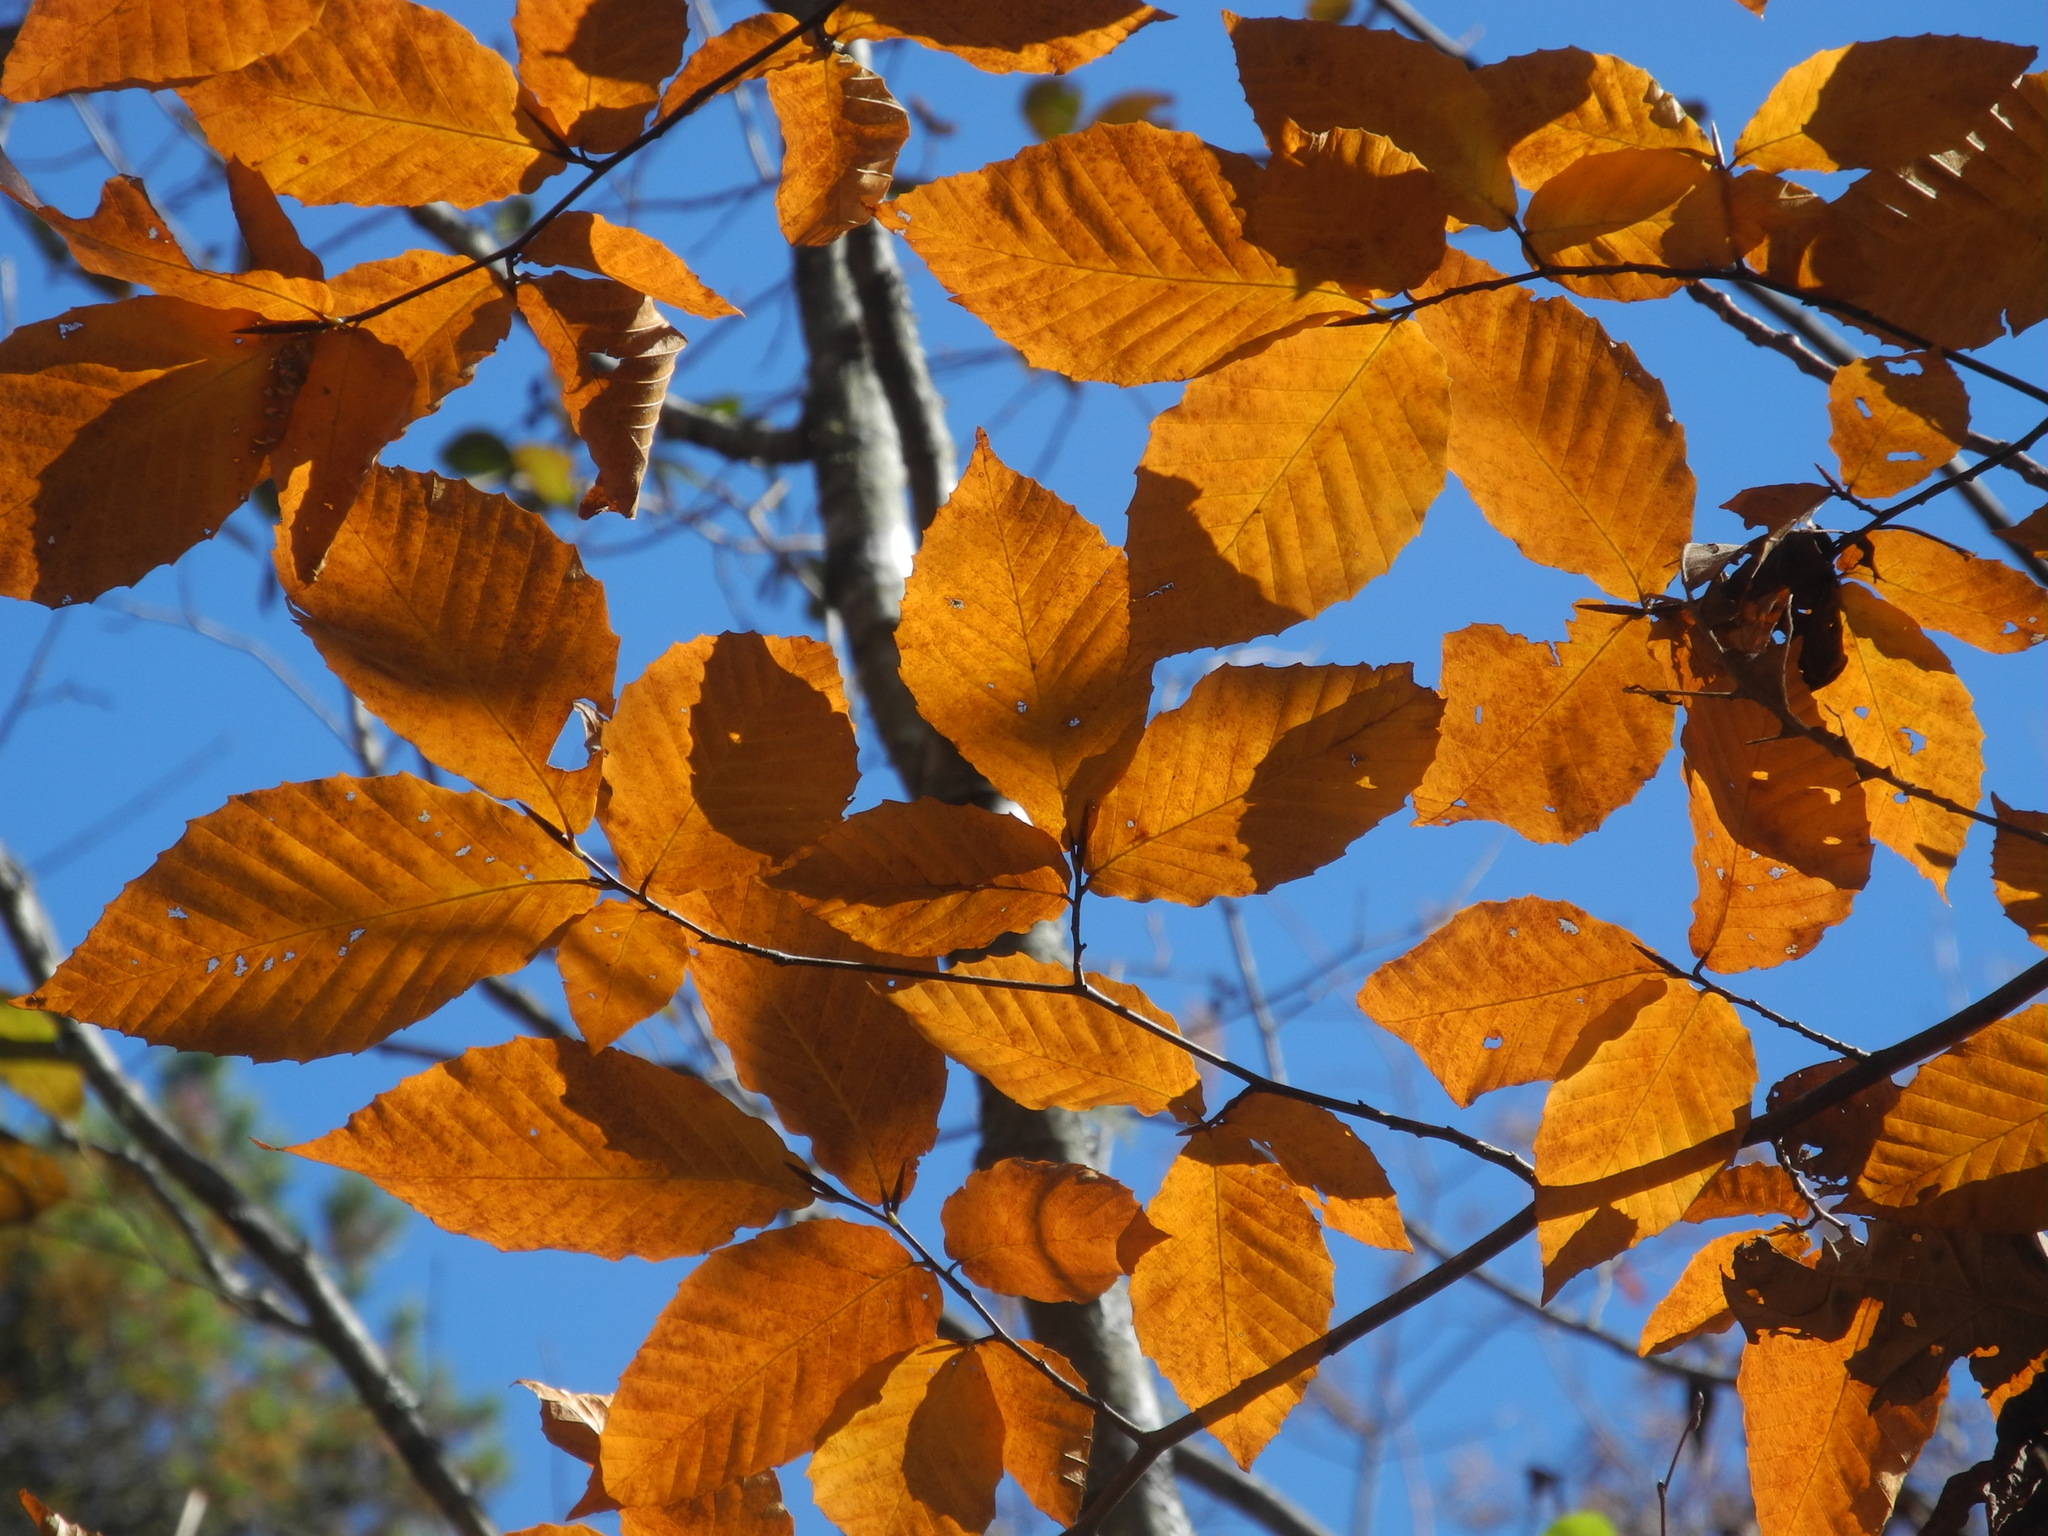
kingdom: Plantae
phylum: Tracheophyta
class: Magnoliopsida
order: Fagales
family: Fagaceae
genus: Fagus
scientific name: Fagus grandifolia
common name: American beech
